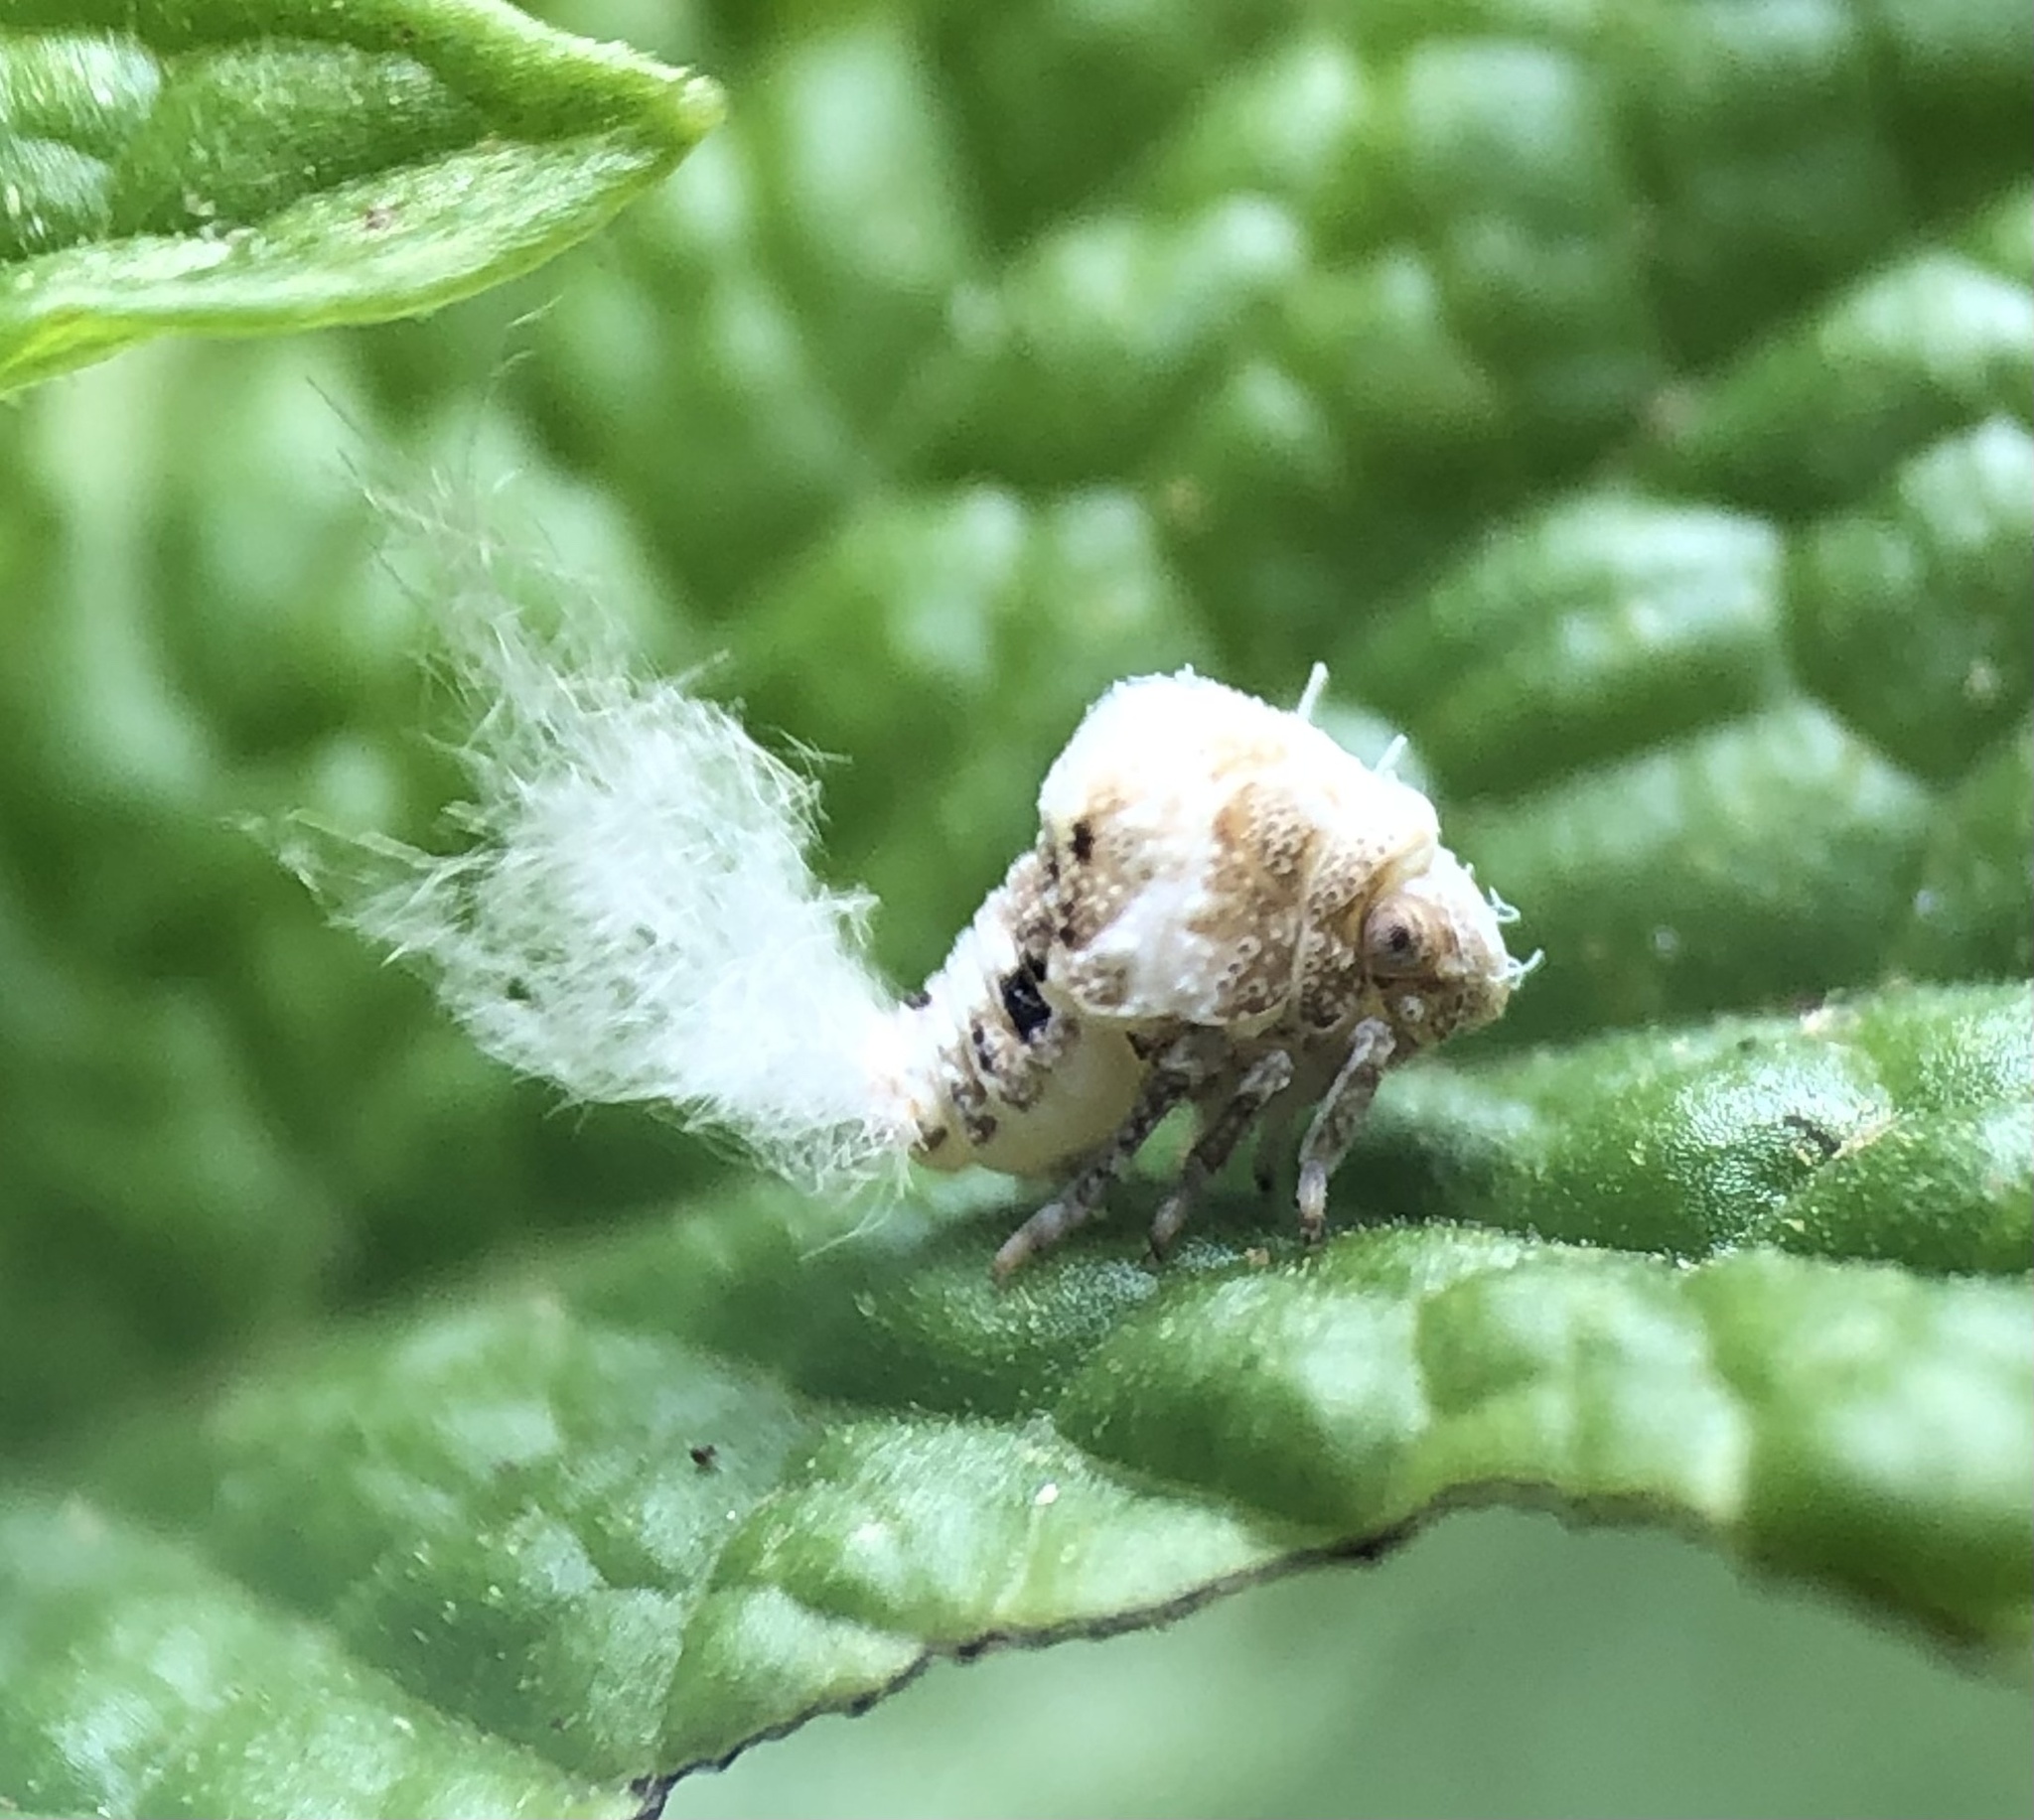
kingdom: Animalia
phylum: Arthropoda
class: Insecta
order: Hemiptera
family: Acanaloniidae
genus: Acanalonia
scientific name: Acanalonia bivittata
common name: Two-striped planthopper
